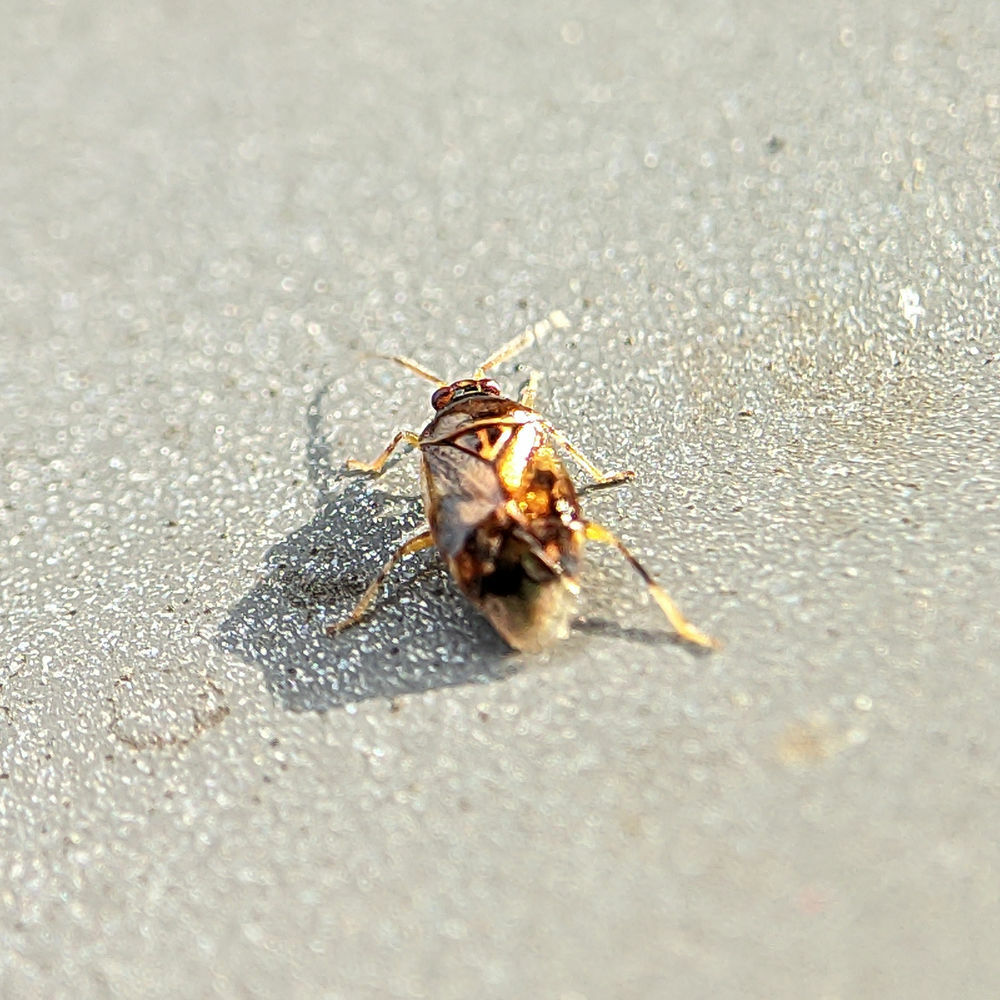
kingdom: Animalia
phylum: Arthropoda
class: Insecta
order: Hemiptera
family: Miridae
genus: Deraeocoris
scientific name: Deraeocoris lutescens
